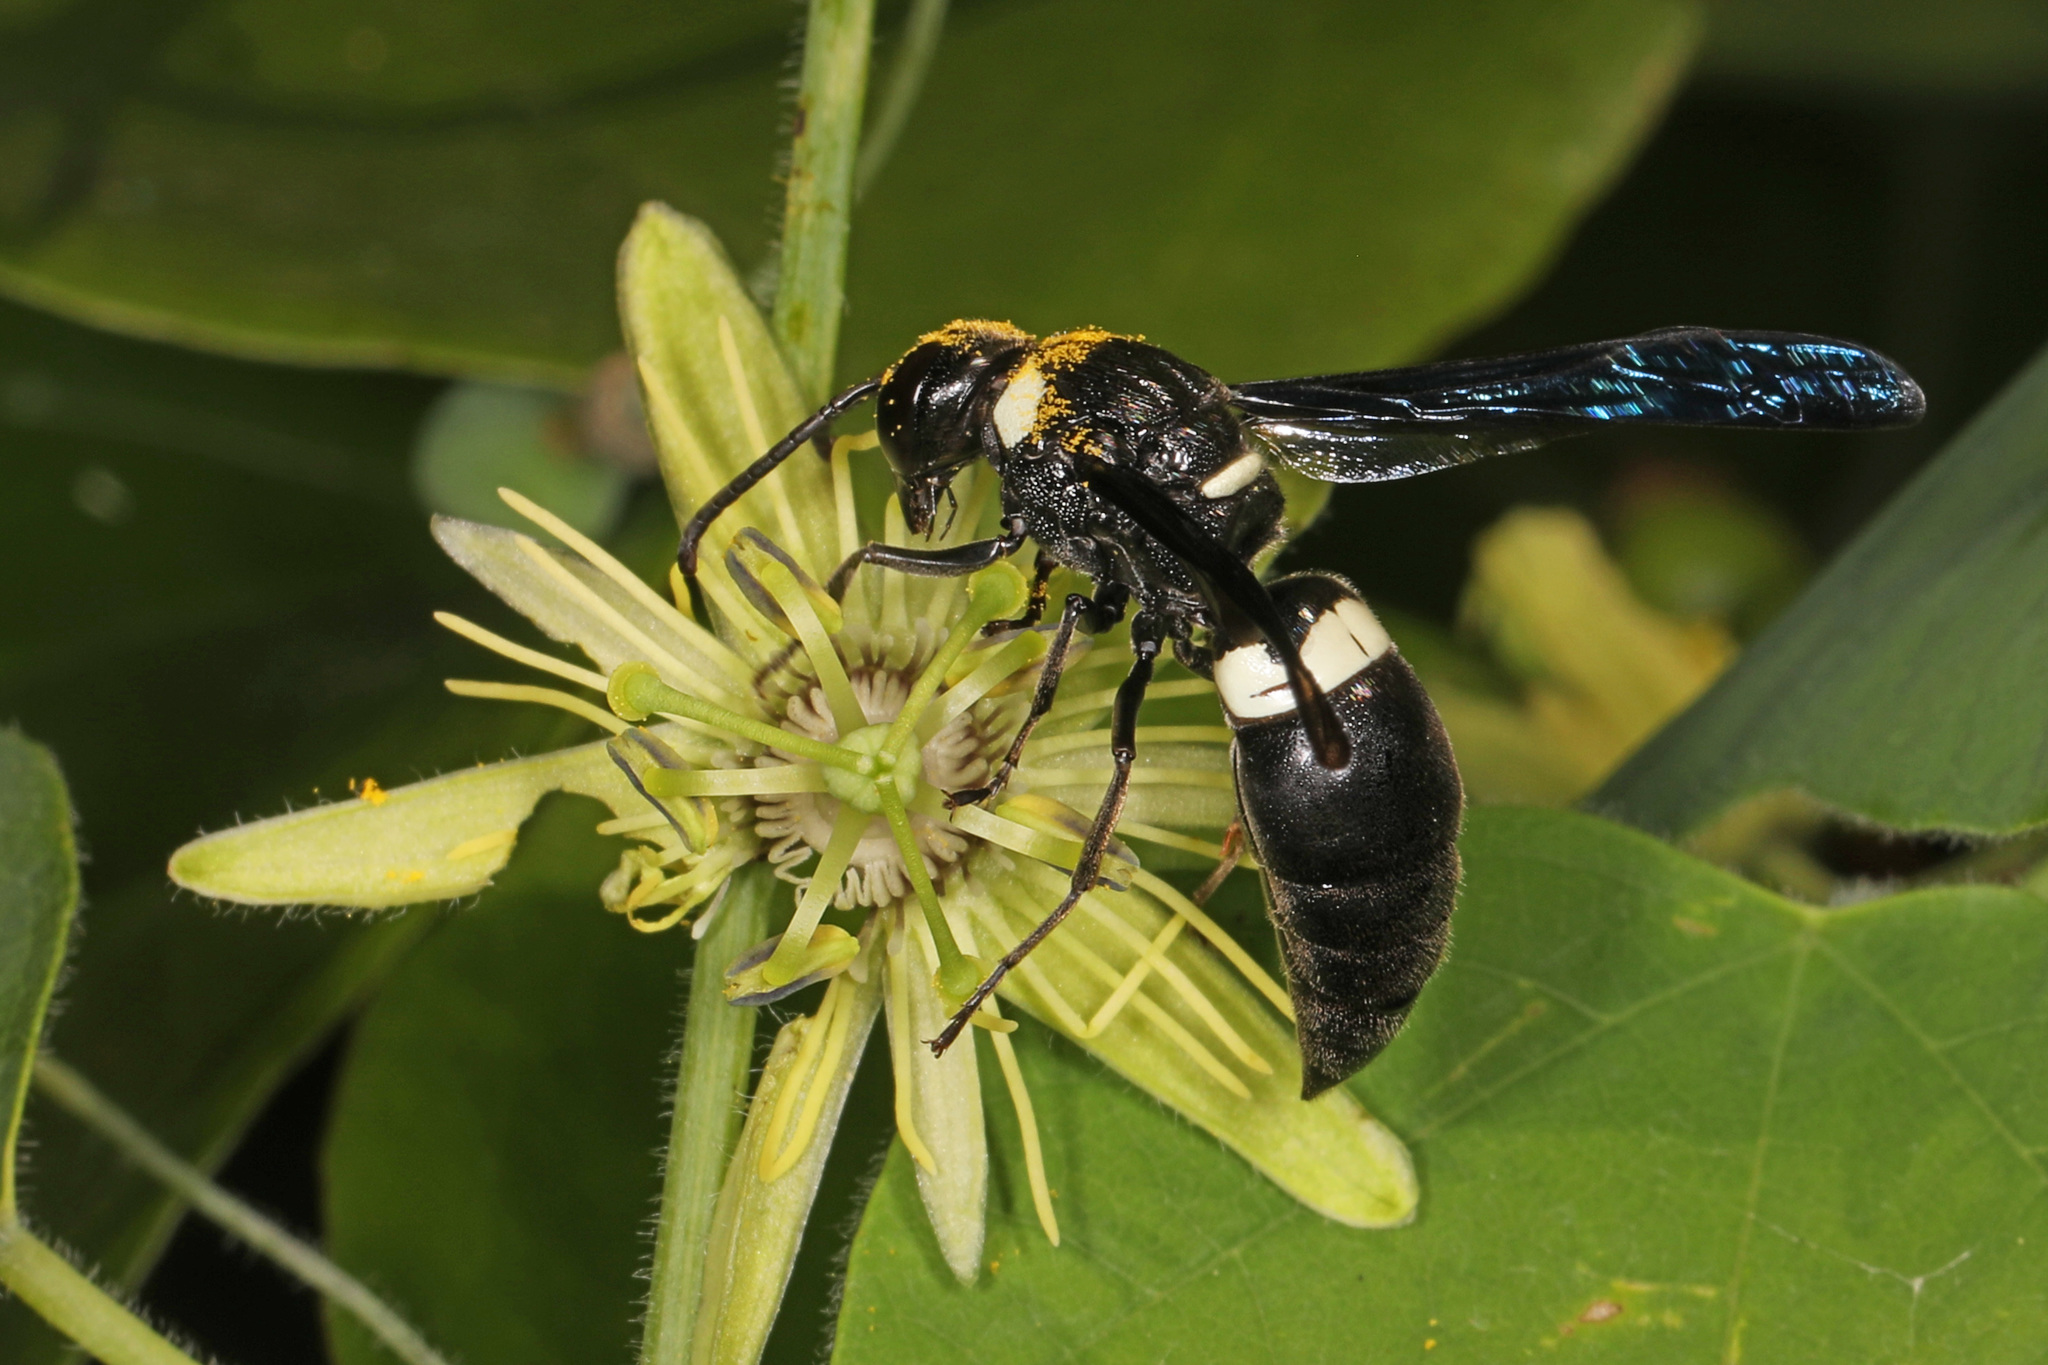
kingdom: Animalia
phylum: Arthropoda
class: Insecta
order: Hymenoptera
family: Eumenidae
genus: Monobia
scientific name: Monobia quadridens
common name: Four-toothed mason wasp
